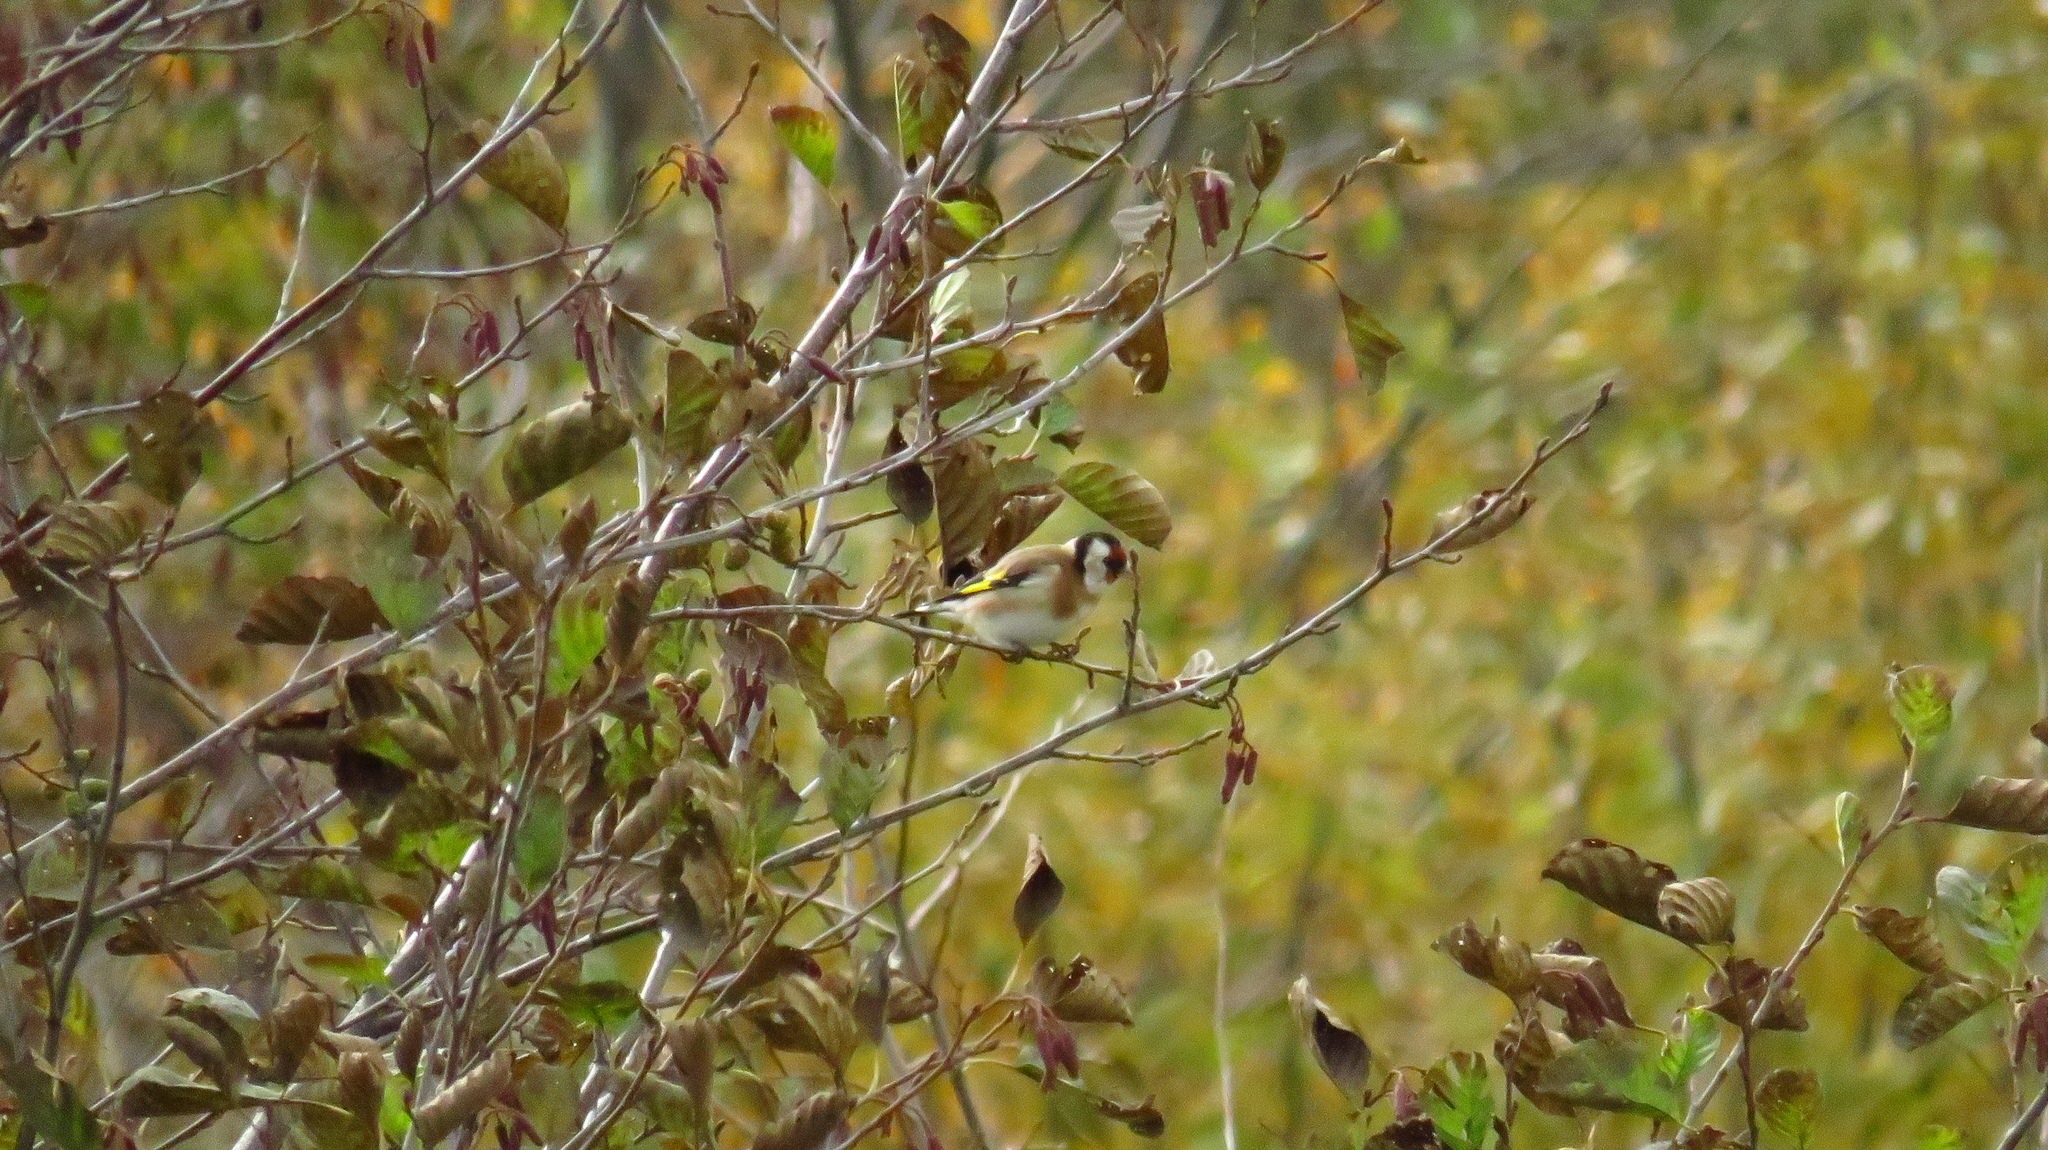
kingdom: Animalia
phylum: Chordata
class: Aves
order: Passeriformes
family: Fringillidae
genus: Carduelis
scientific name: Carduelis carduelis
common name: European goldfinch
